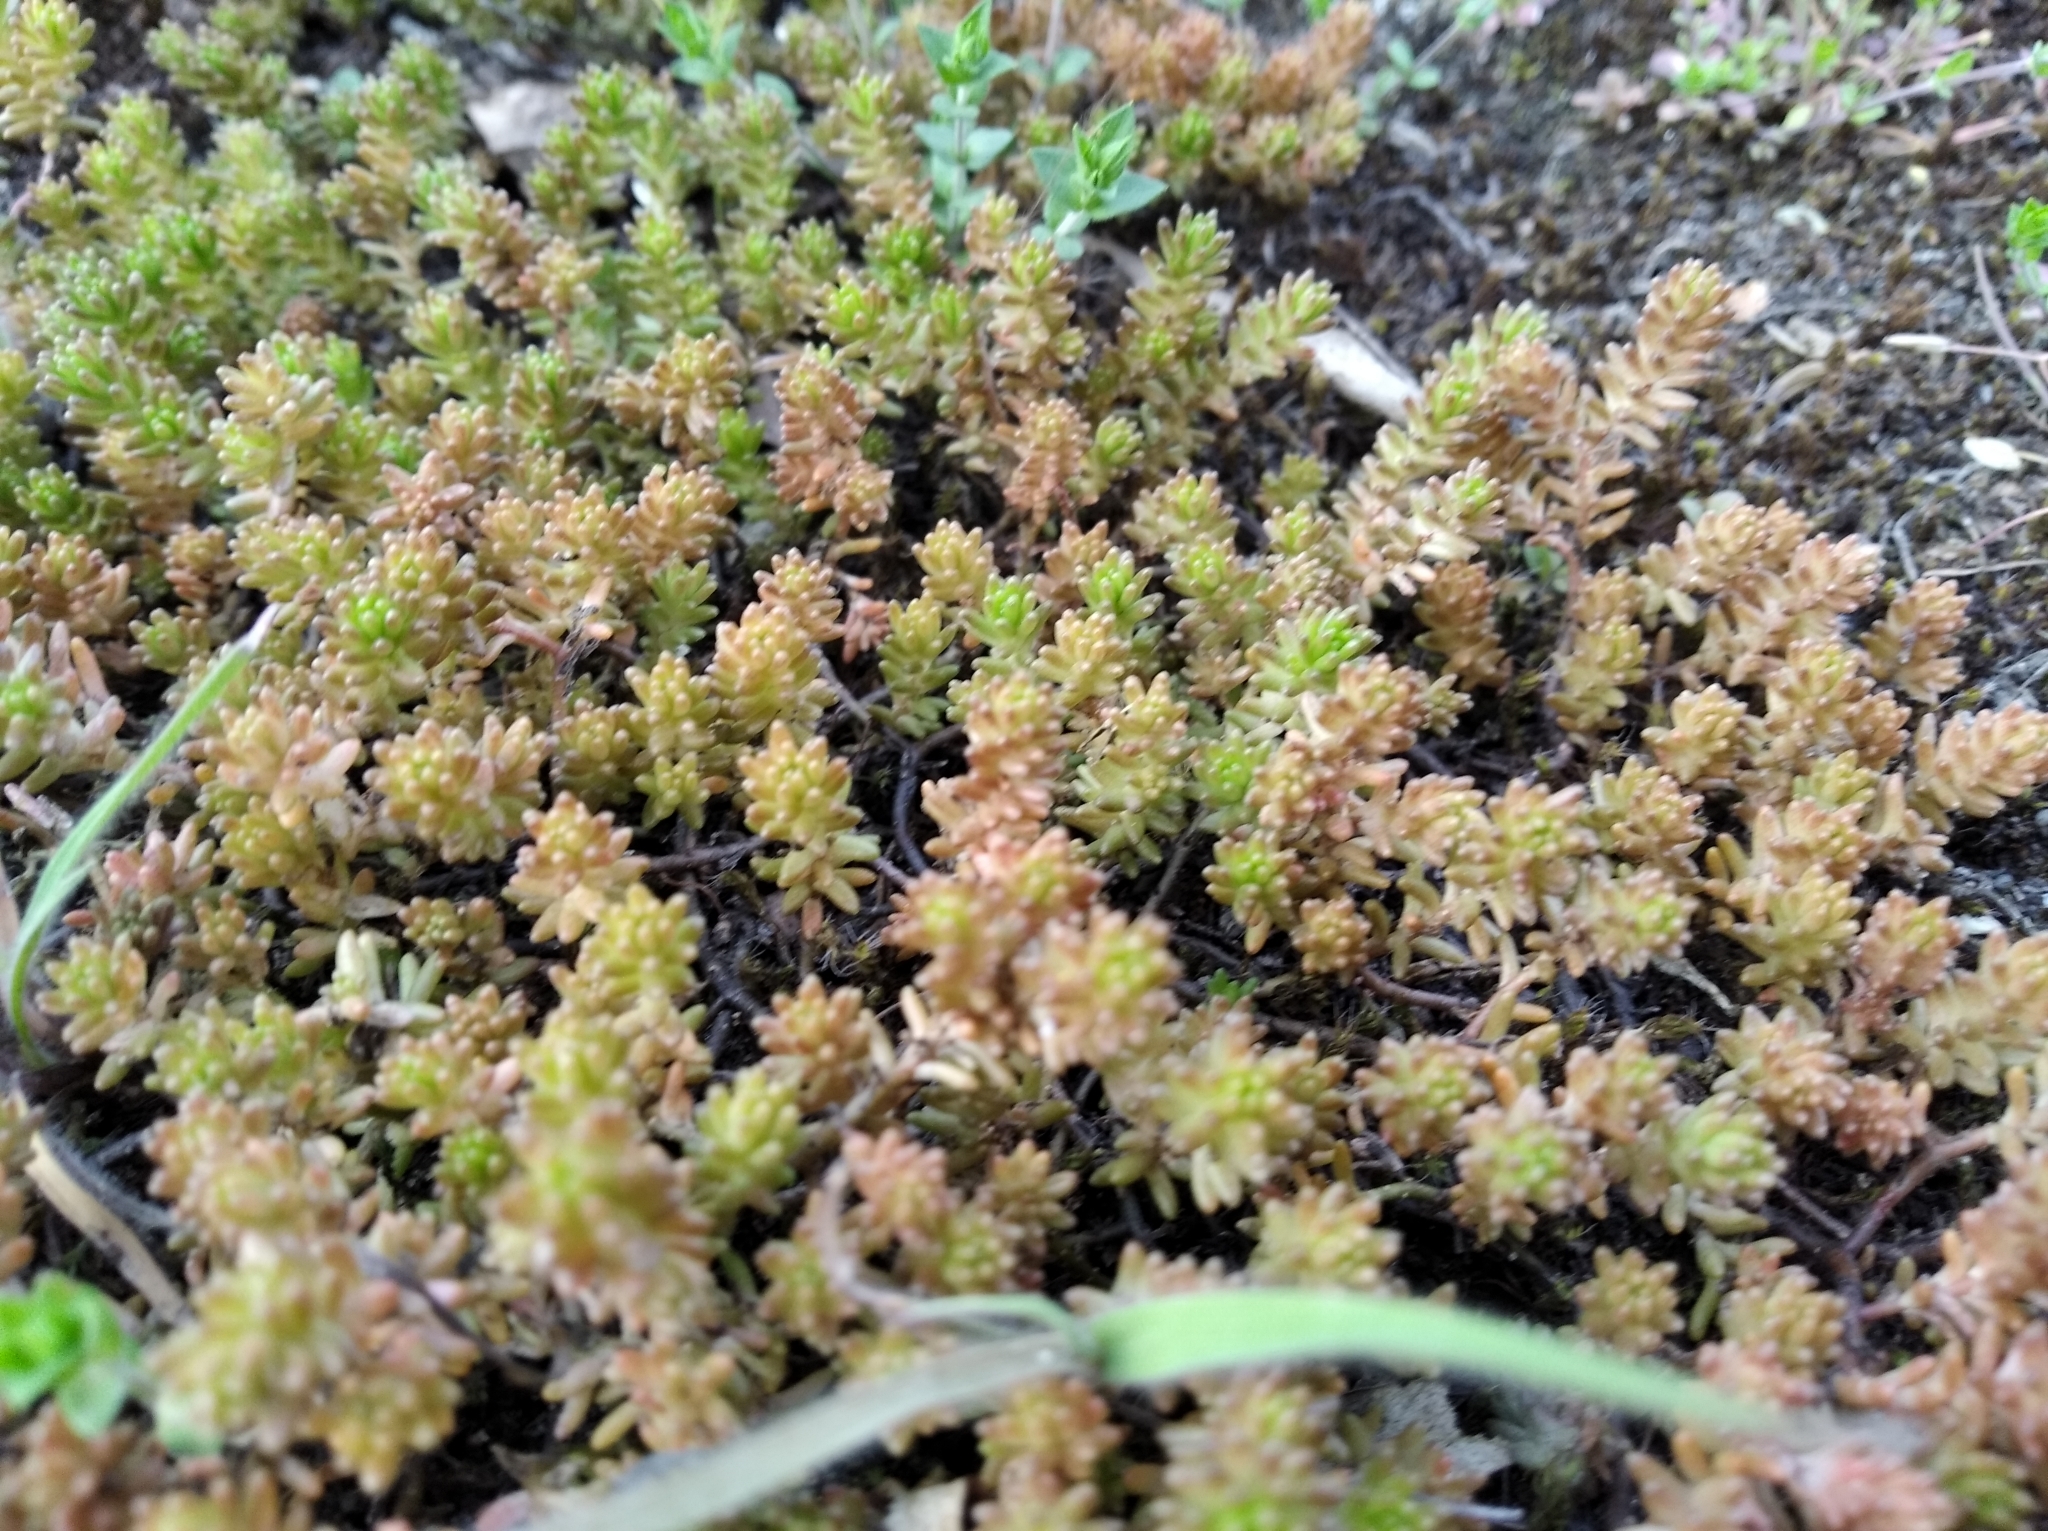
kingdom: Plantae
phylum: Tracheophyta
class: Magnoliopsida
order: Saxifragales
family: Crassulaceae
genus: Sedum
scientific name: Sedum sexangulare
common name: Tasteless stonecrop
